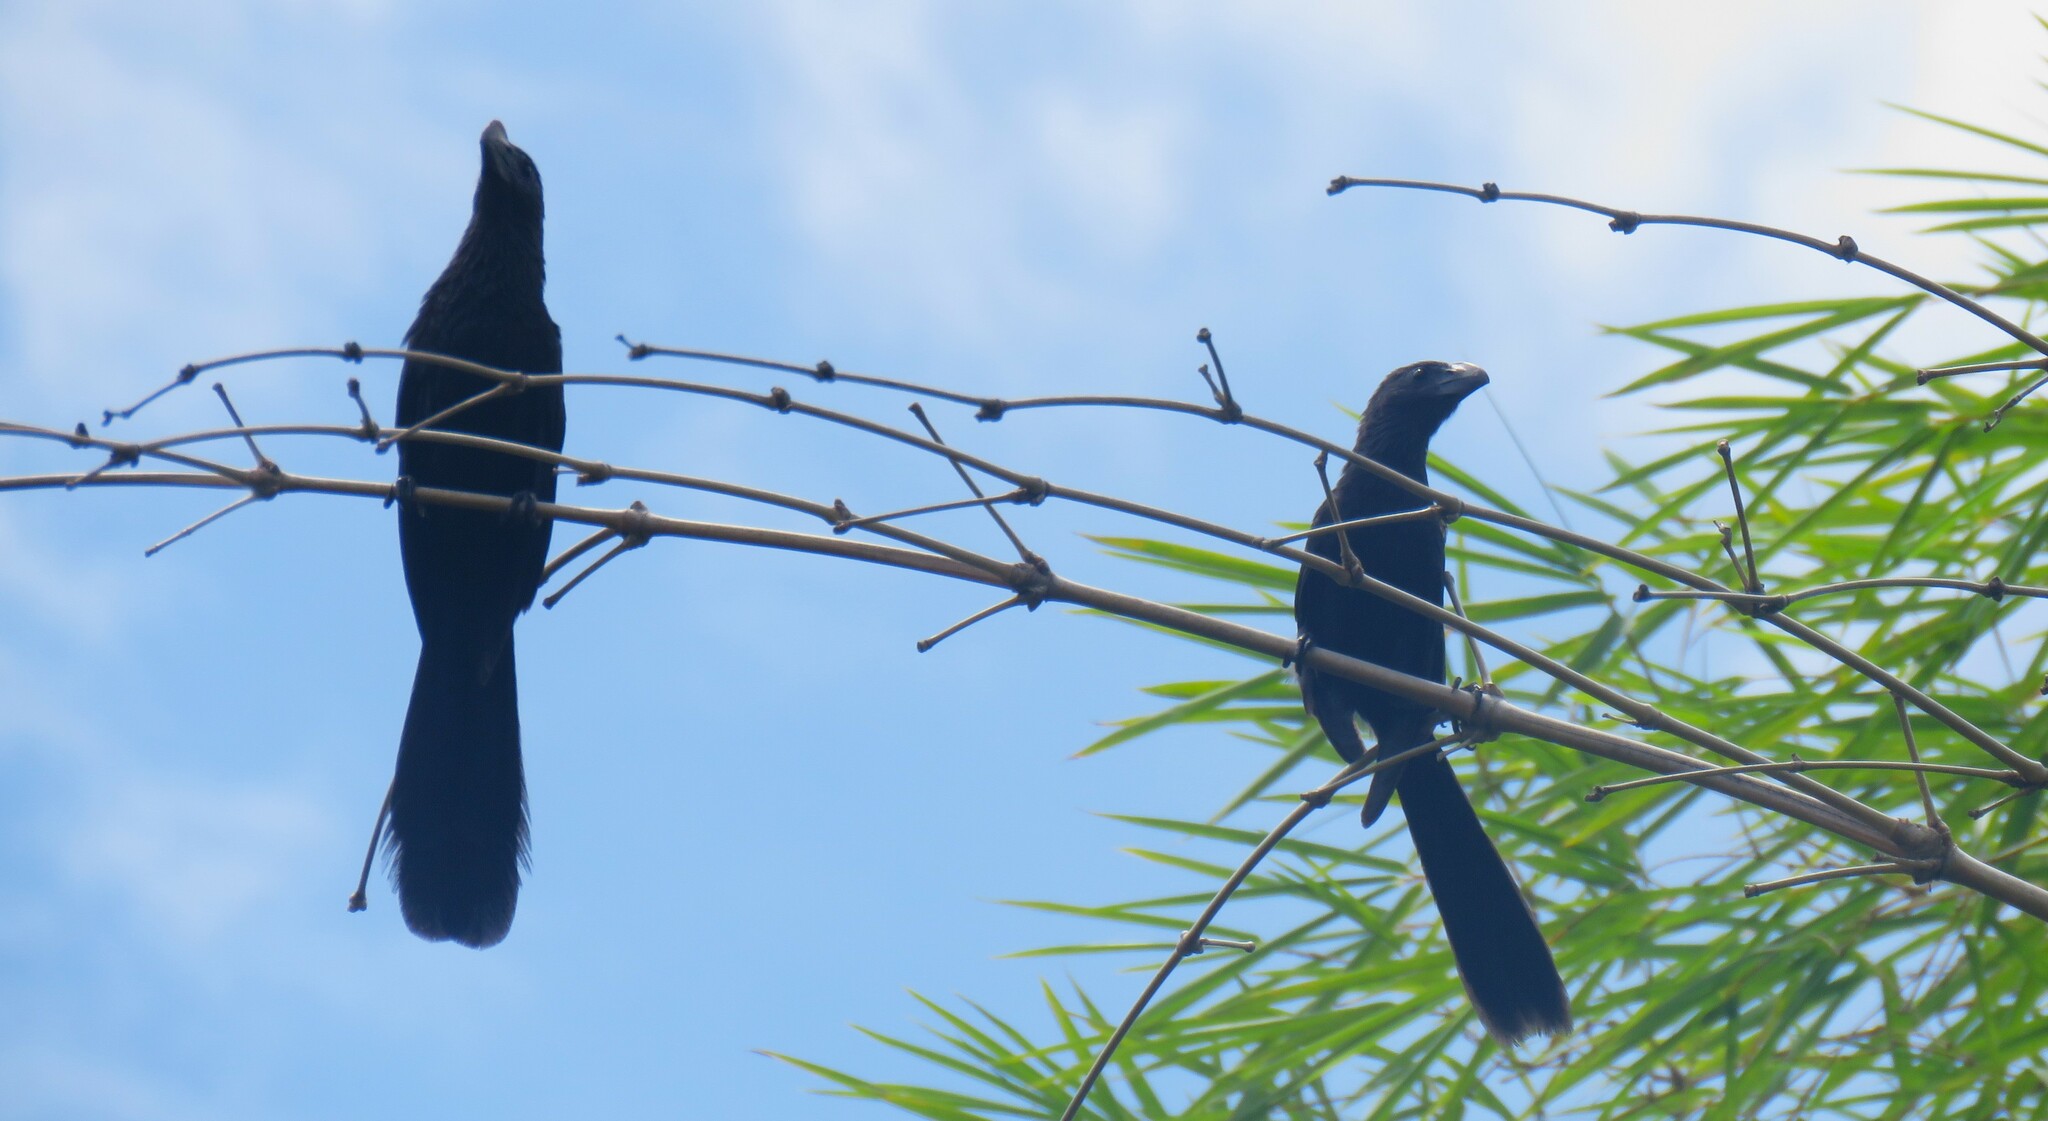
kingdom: Animalia
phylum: Chordata
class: Aves
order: Cuculiformes
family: Cuculidae
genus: Crotophaga
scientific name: Crotophaga ani
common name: Smooth-billed ani
